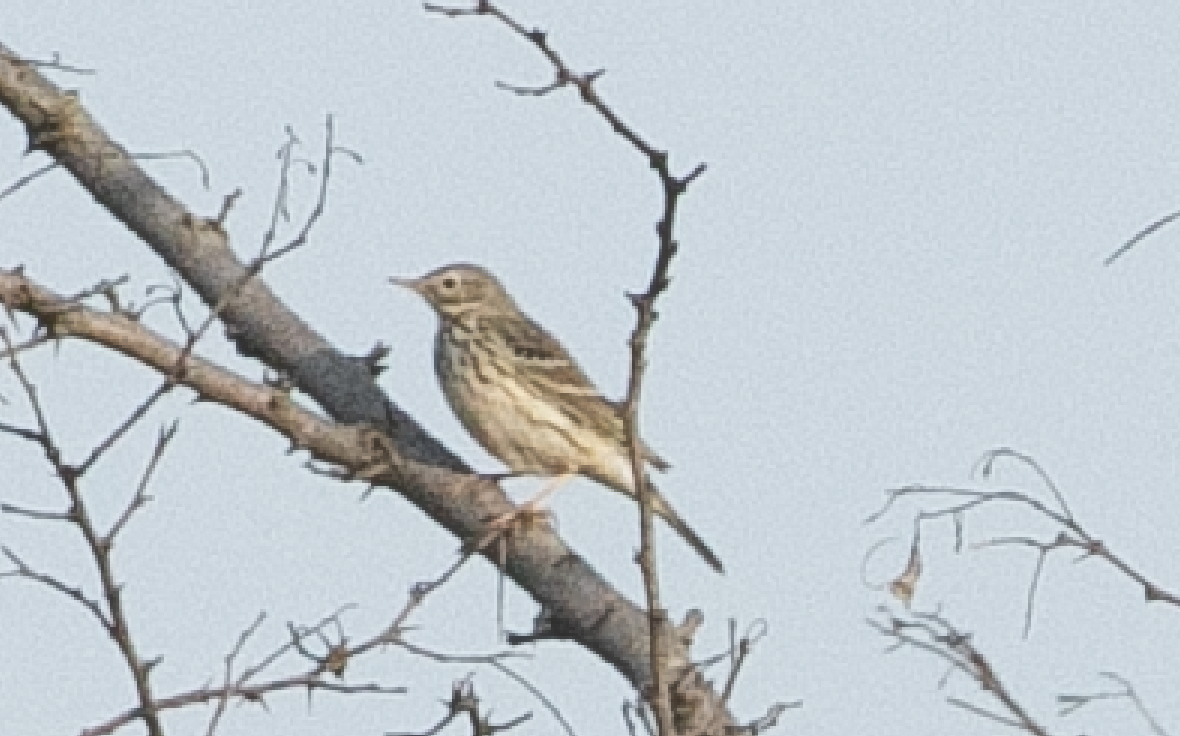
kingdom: Animalia
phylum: Chordata
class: Aves
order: Passeriformes
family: Motacillidae
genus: Anthus
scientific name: Anthus pratensis
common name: Meadow pipit
